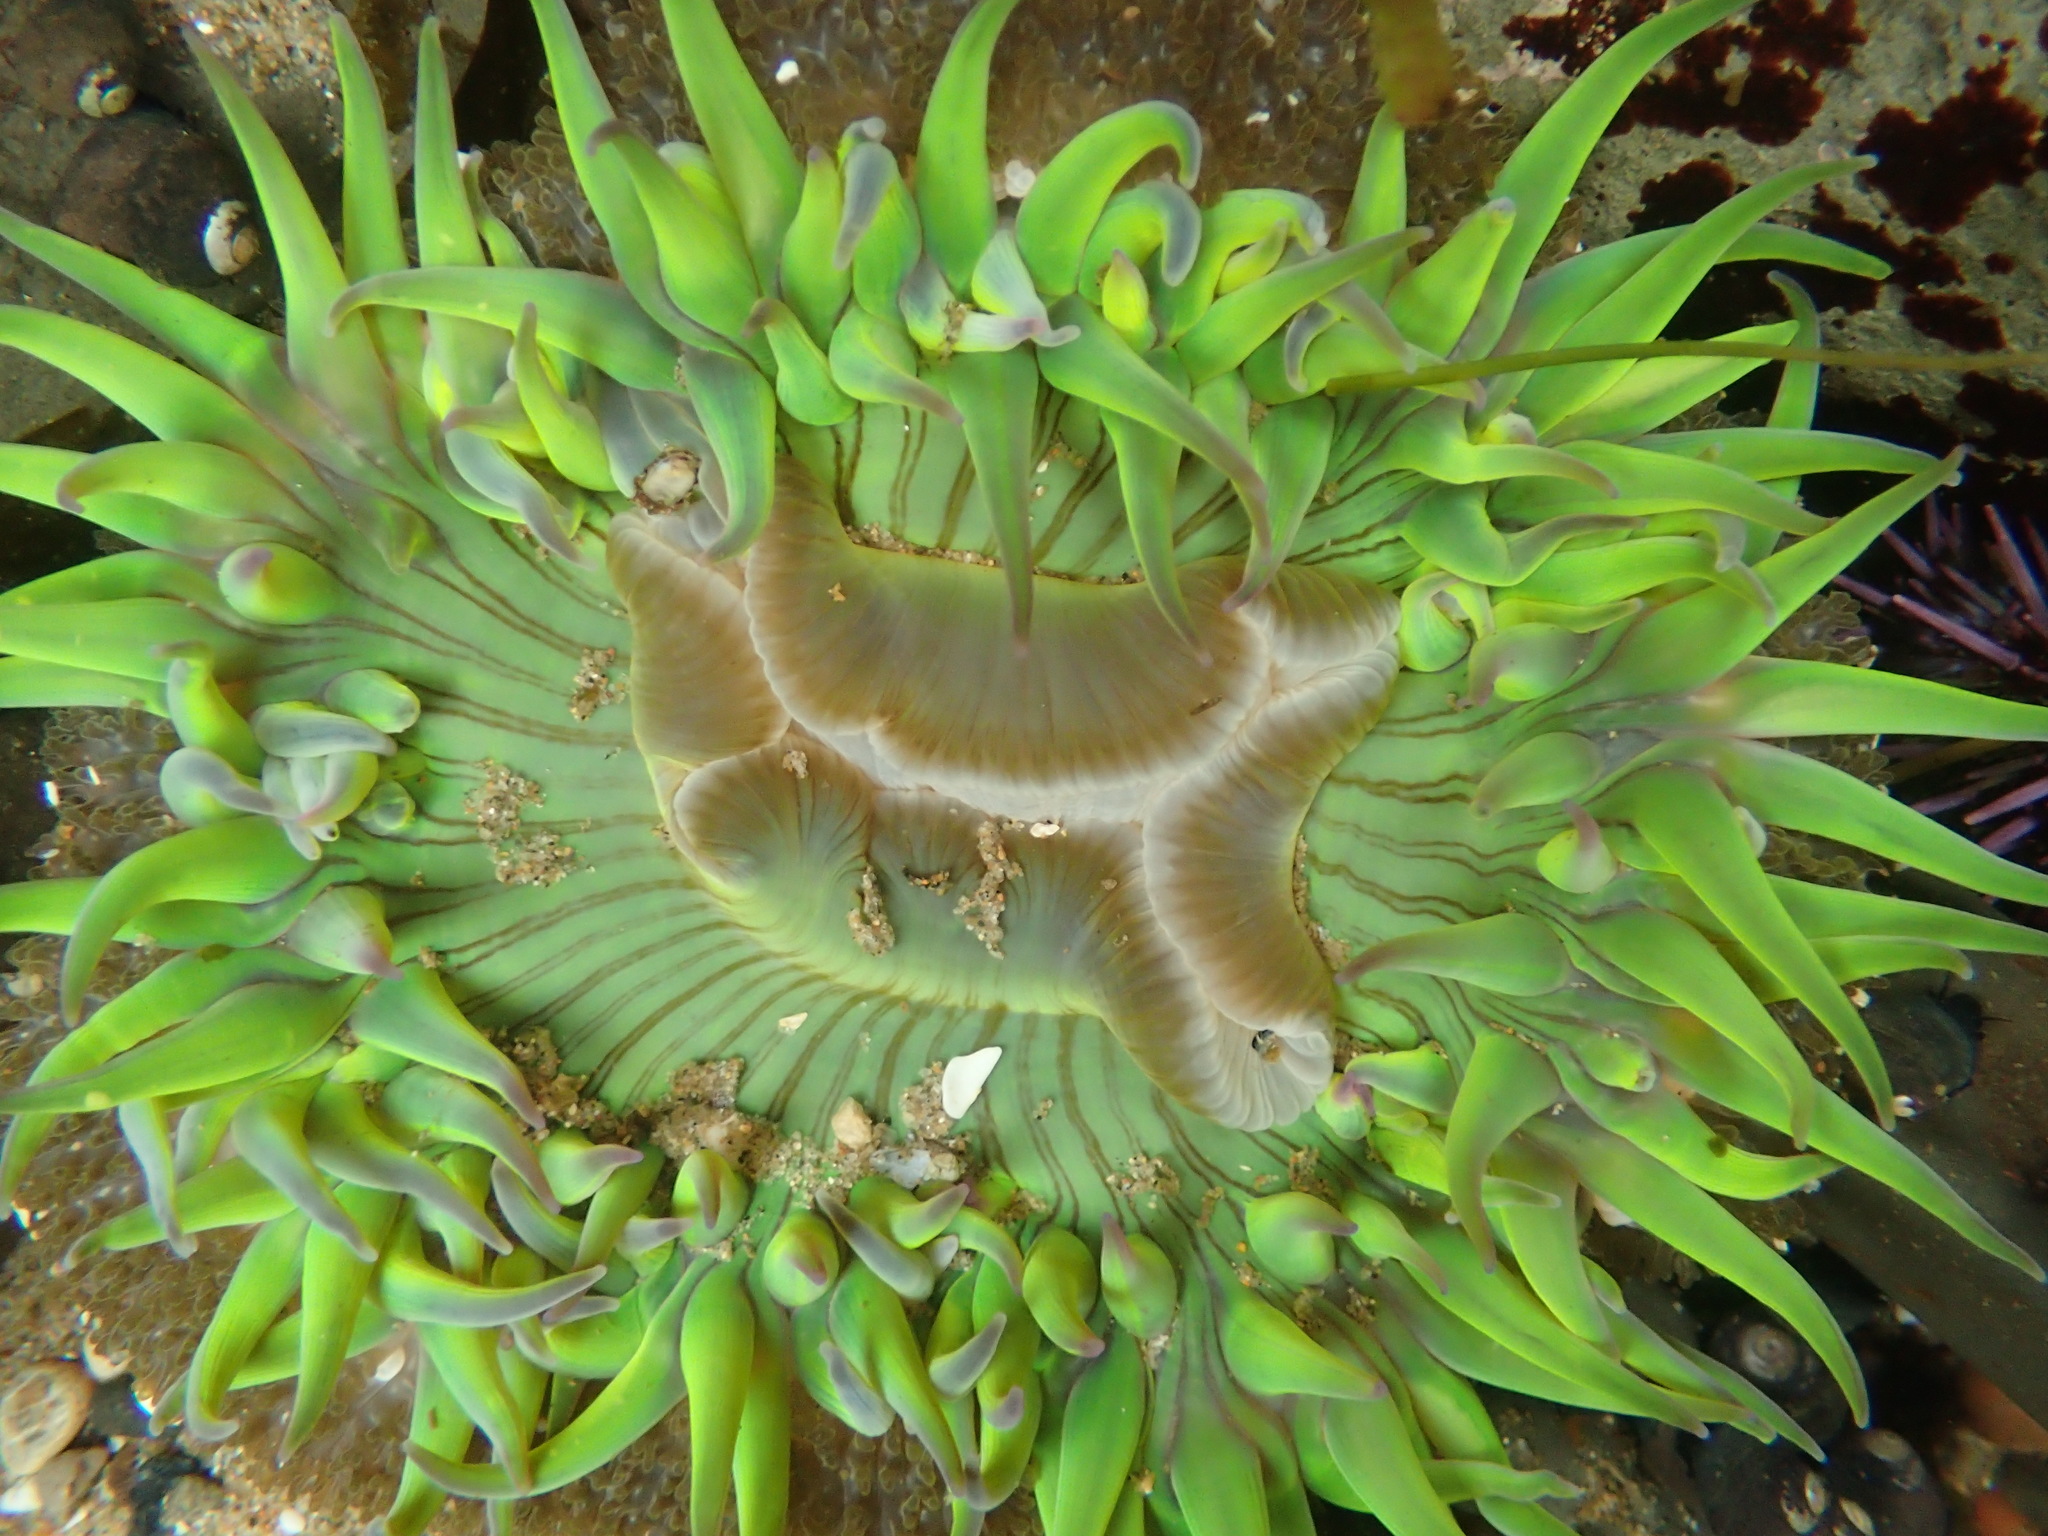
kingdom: Animalia
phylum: Cnidaria
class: Anthozoa
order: Actiniaria
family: Actiniidae
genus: Anthopleura
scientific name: Anthopleura sola
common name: Sun anemone
